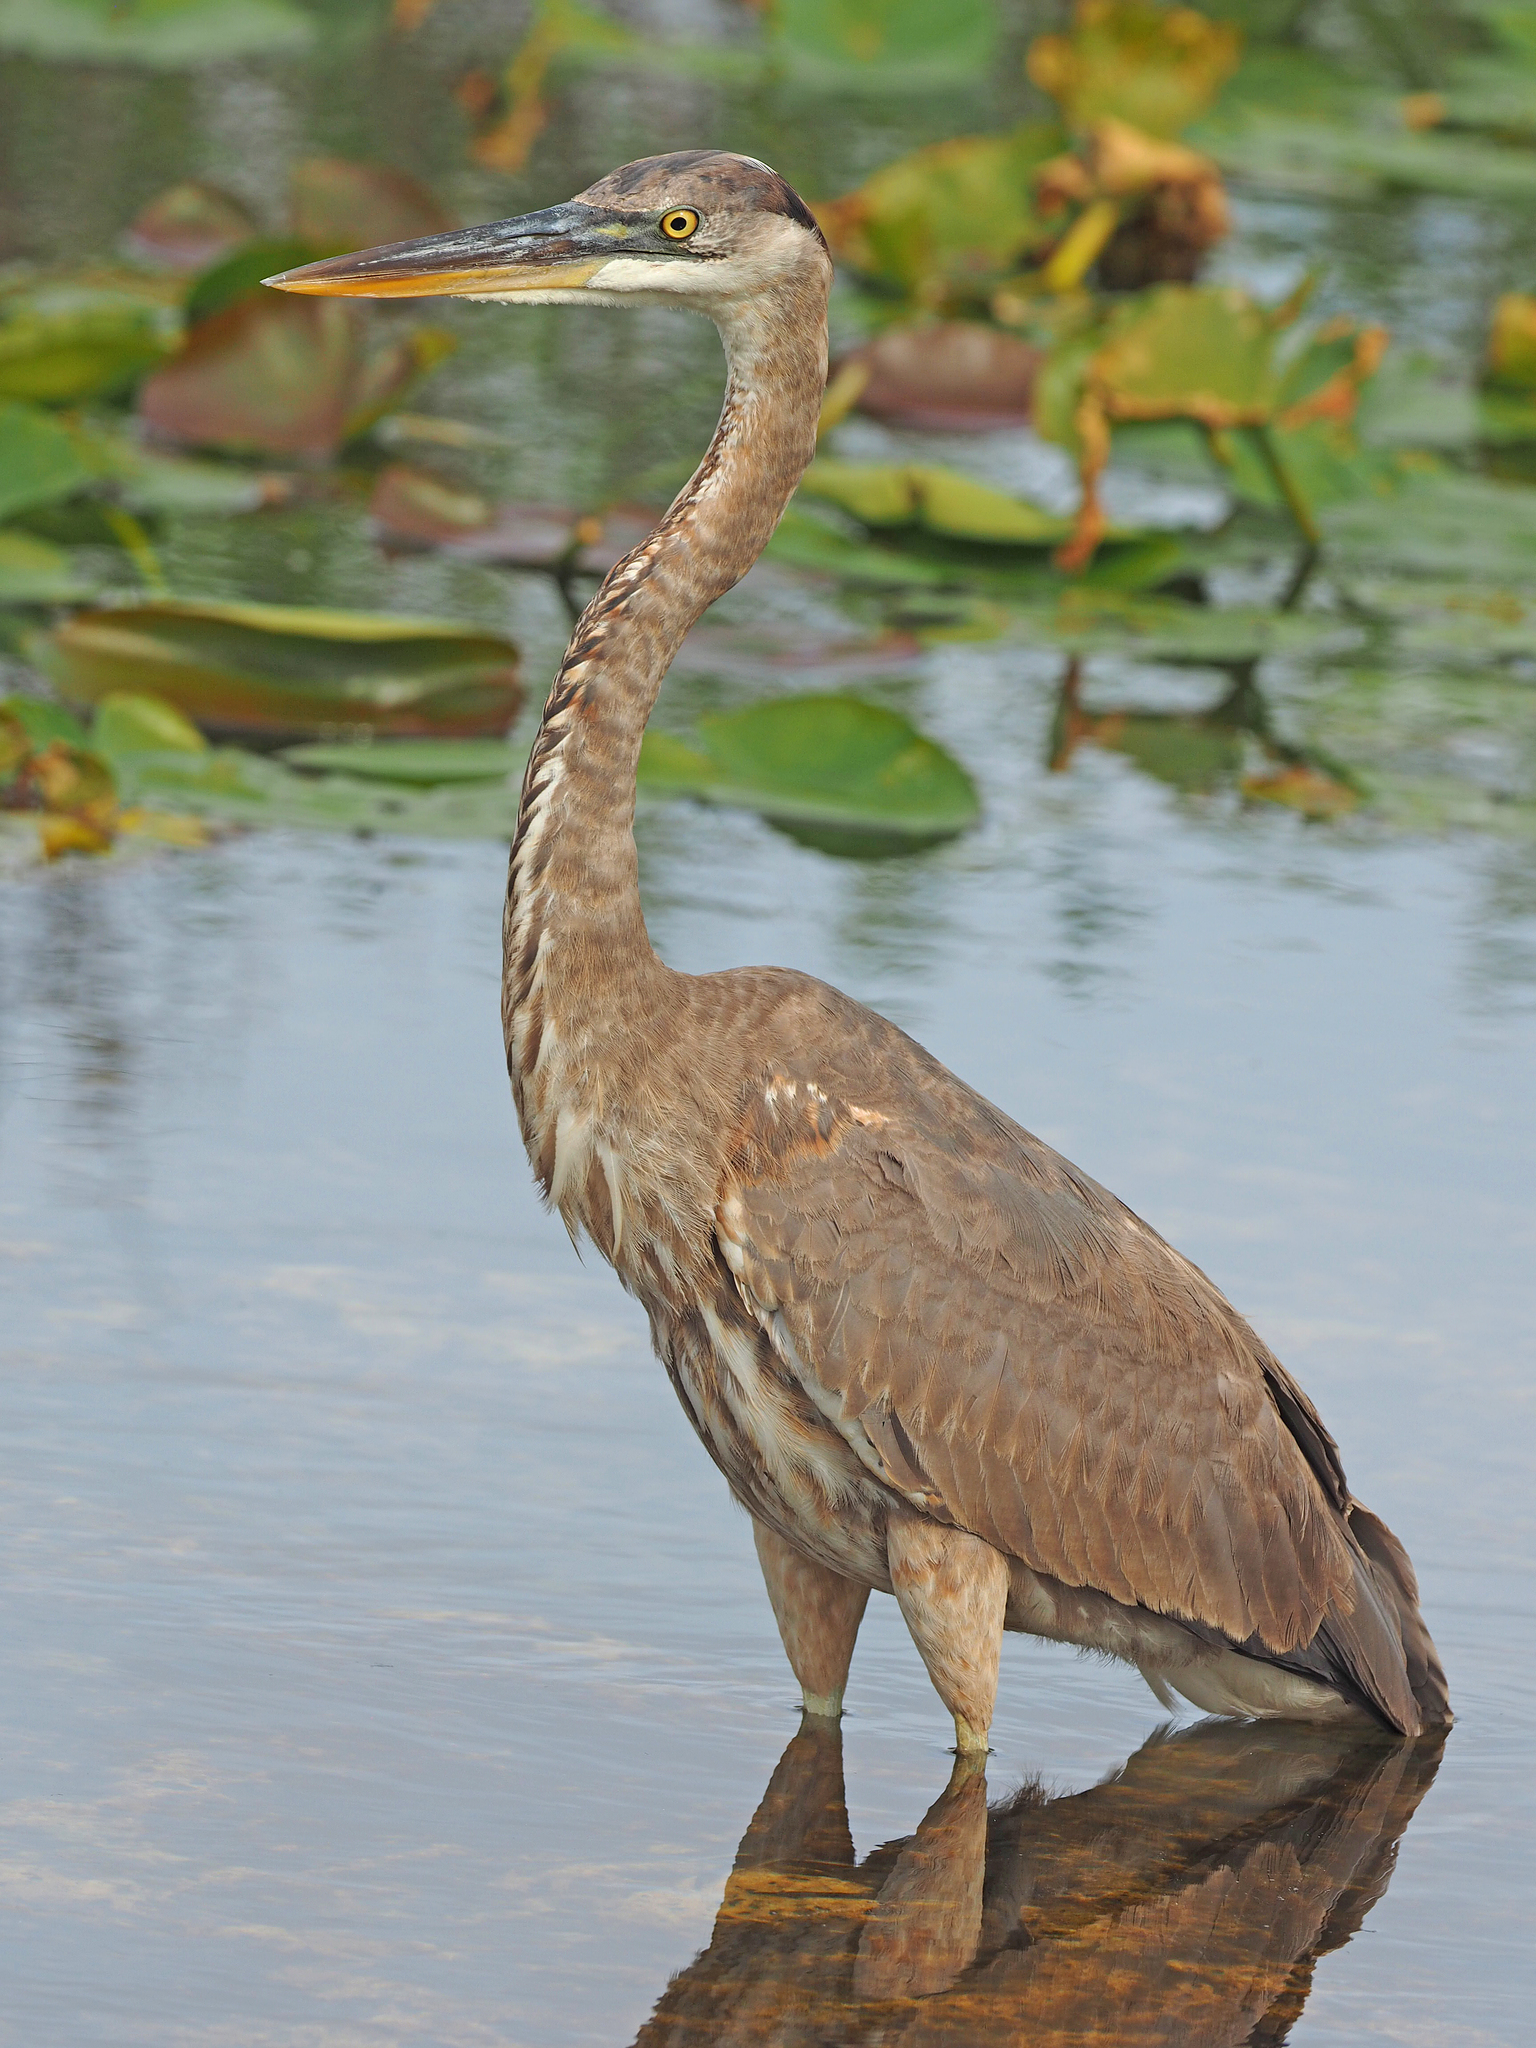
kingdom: Animalia
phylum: Chordata
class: Aves
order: Pelecaniformes
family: Ardeidae
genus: Ardea
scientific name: Ardea herodias
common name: Great blue heron
